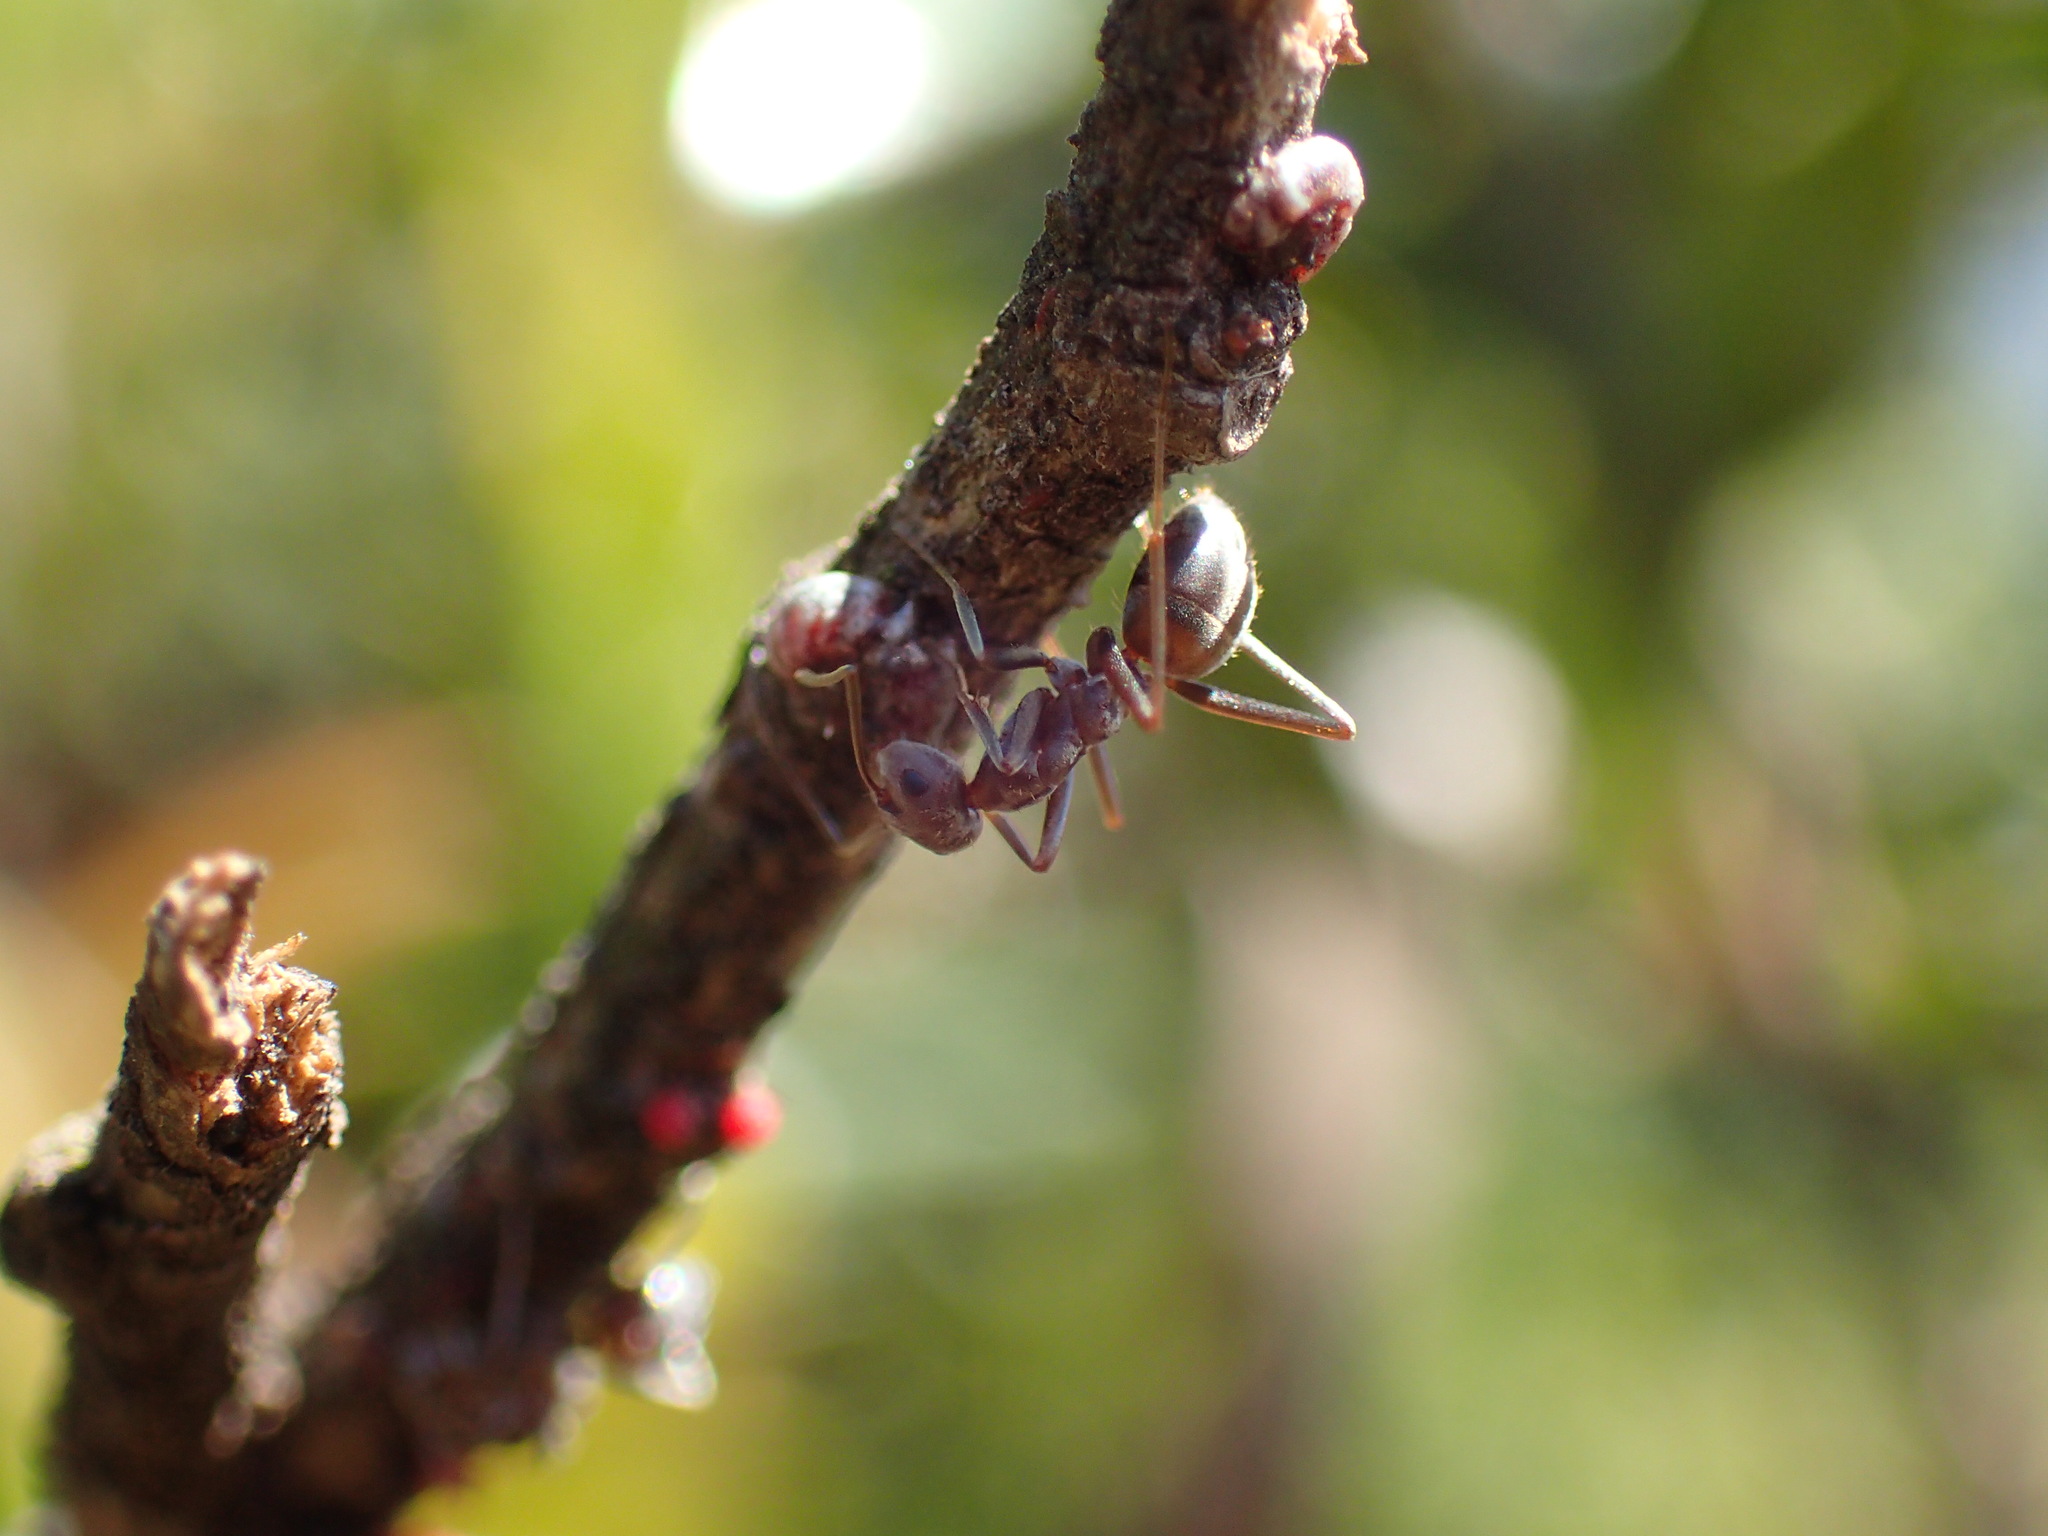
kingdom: Animalia
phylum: Arthropoda
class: Insecta
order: Hymenoptera
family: Formicidae
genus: Anoplolepis
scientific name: Anoplolepis custodiens
